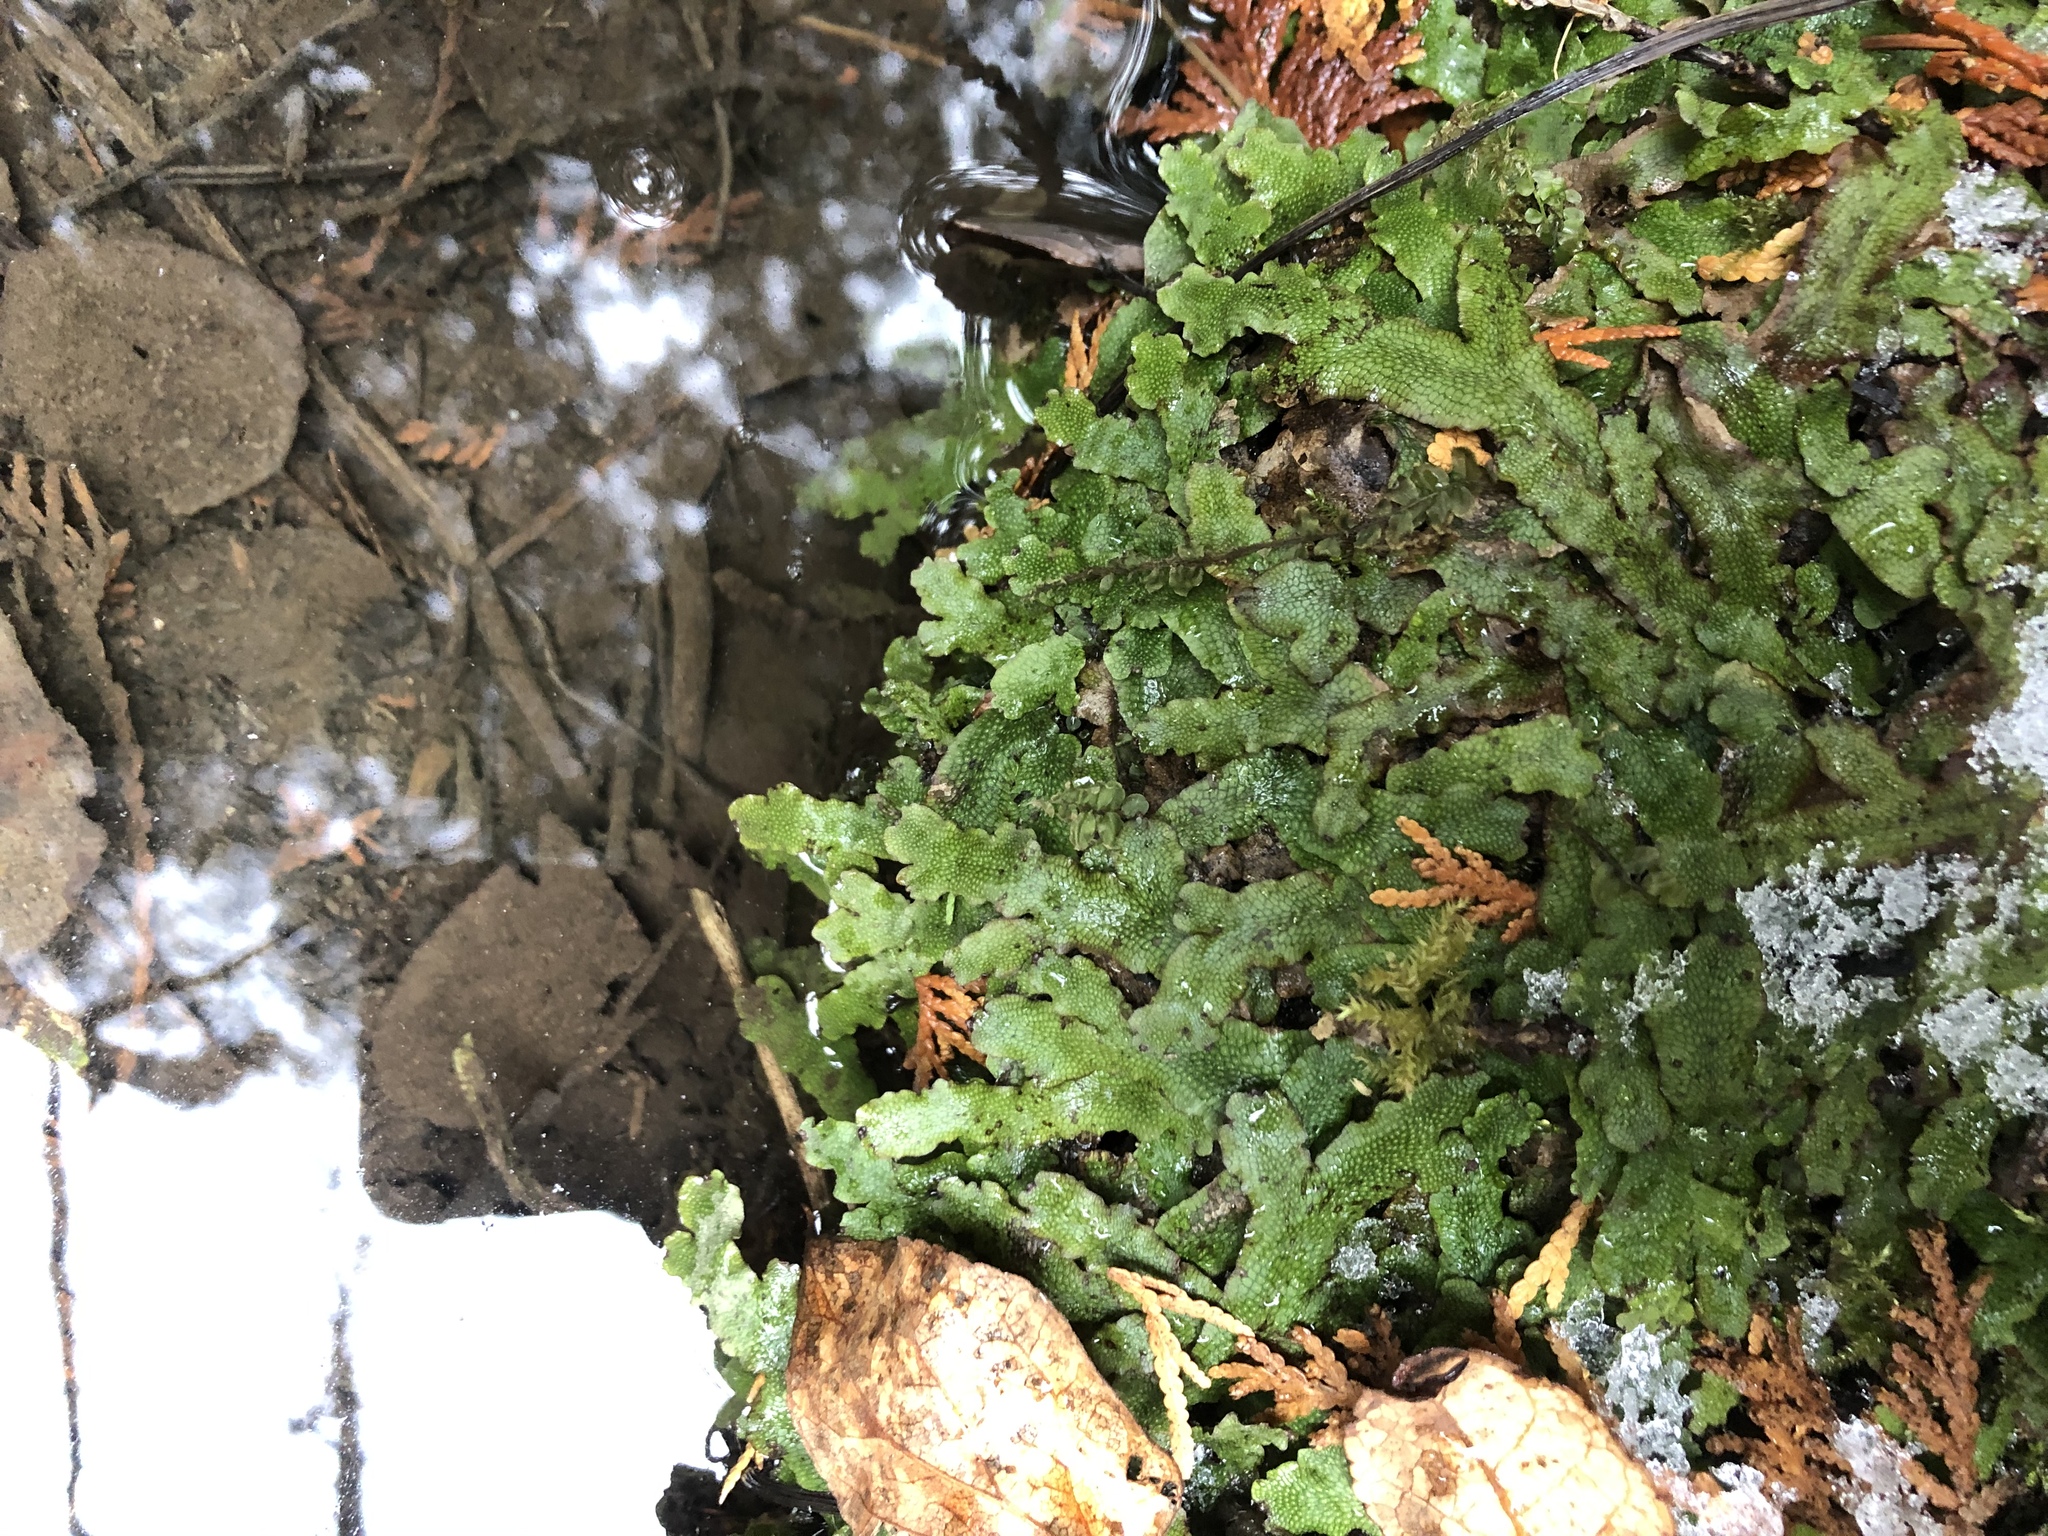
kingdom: Plantae
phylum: Marchantiophyta
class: Marchantiopsida
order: Marchantiales
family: Conocephalaceae
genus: Conocephalum
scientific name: Conocephalum salebrosum
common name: Cat-tongue liverwort
